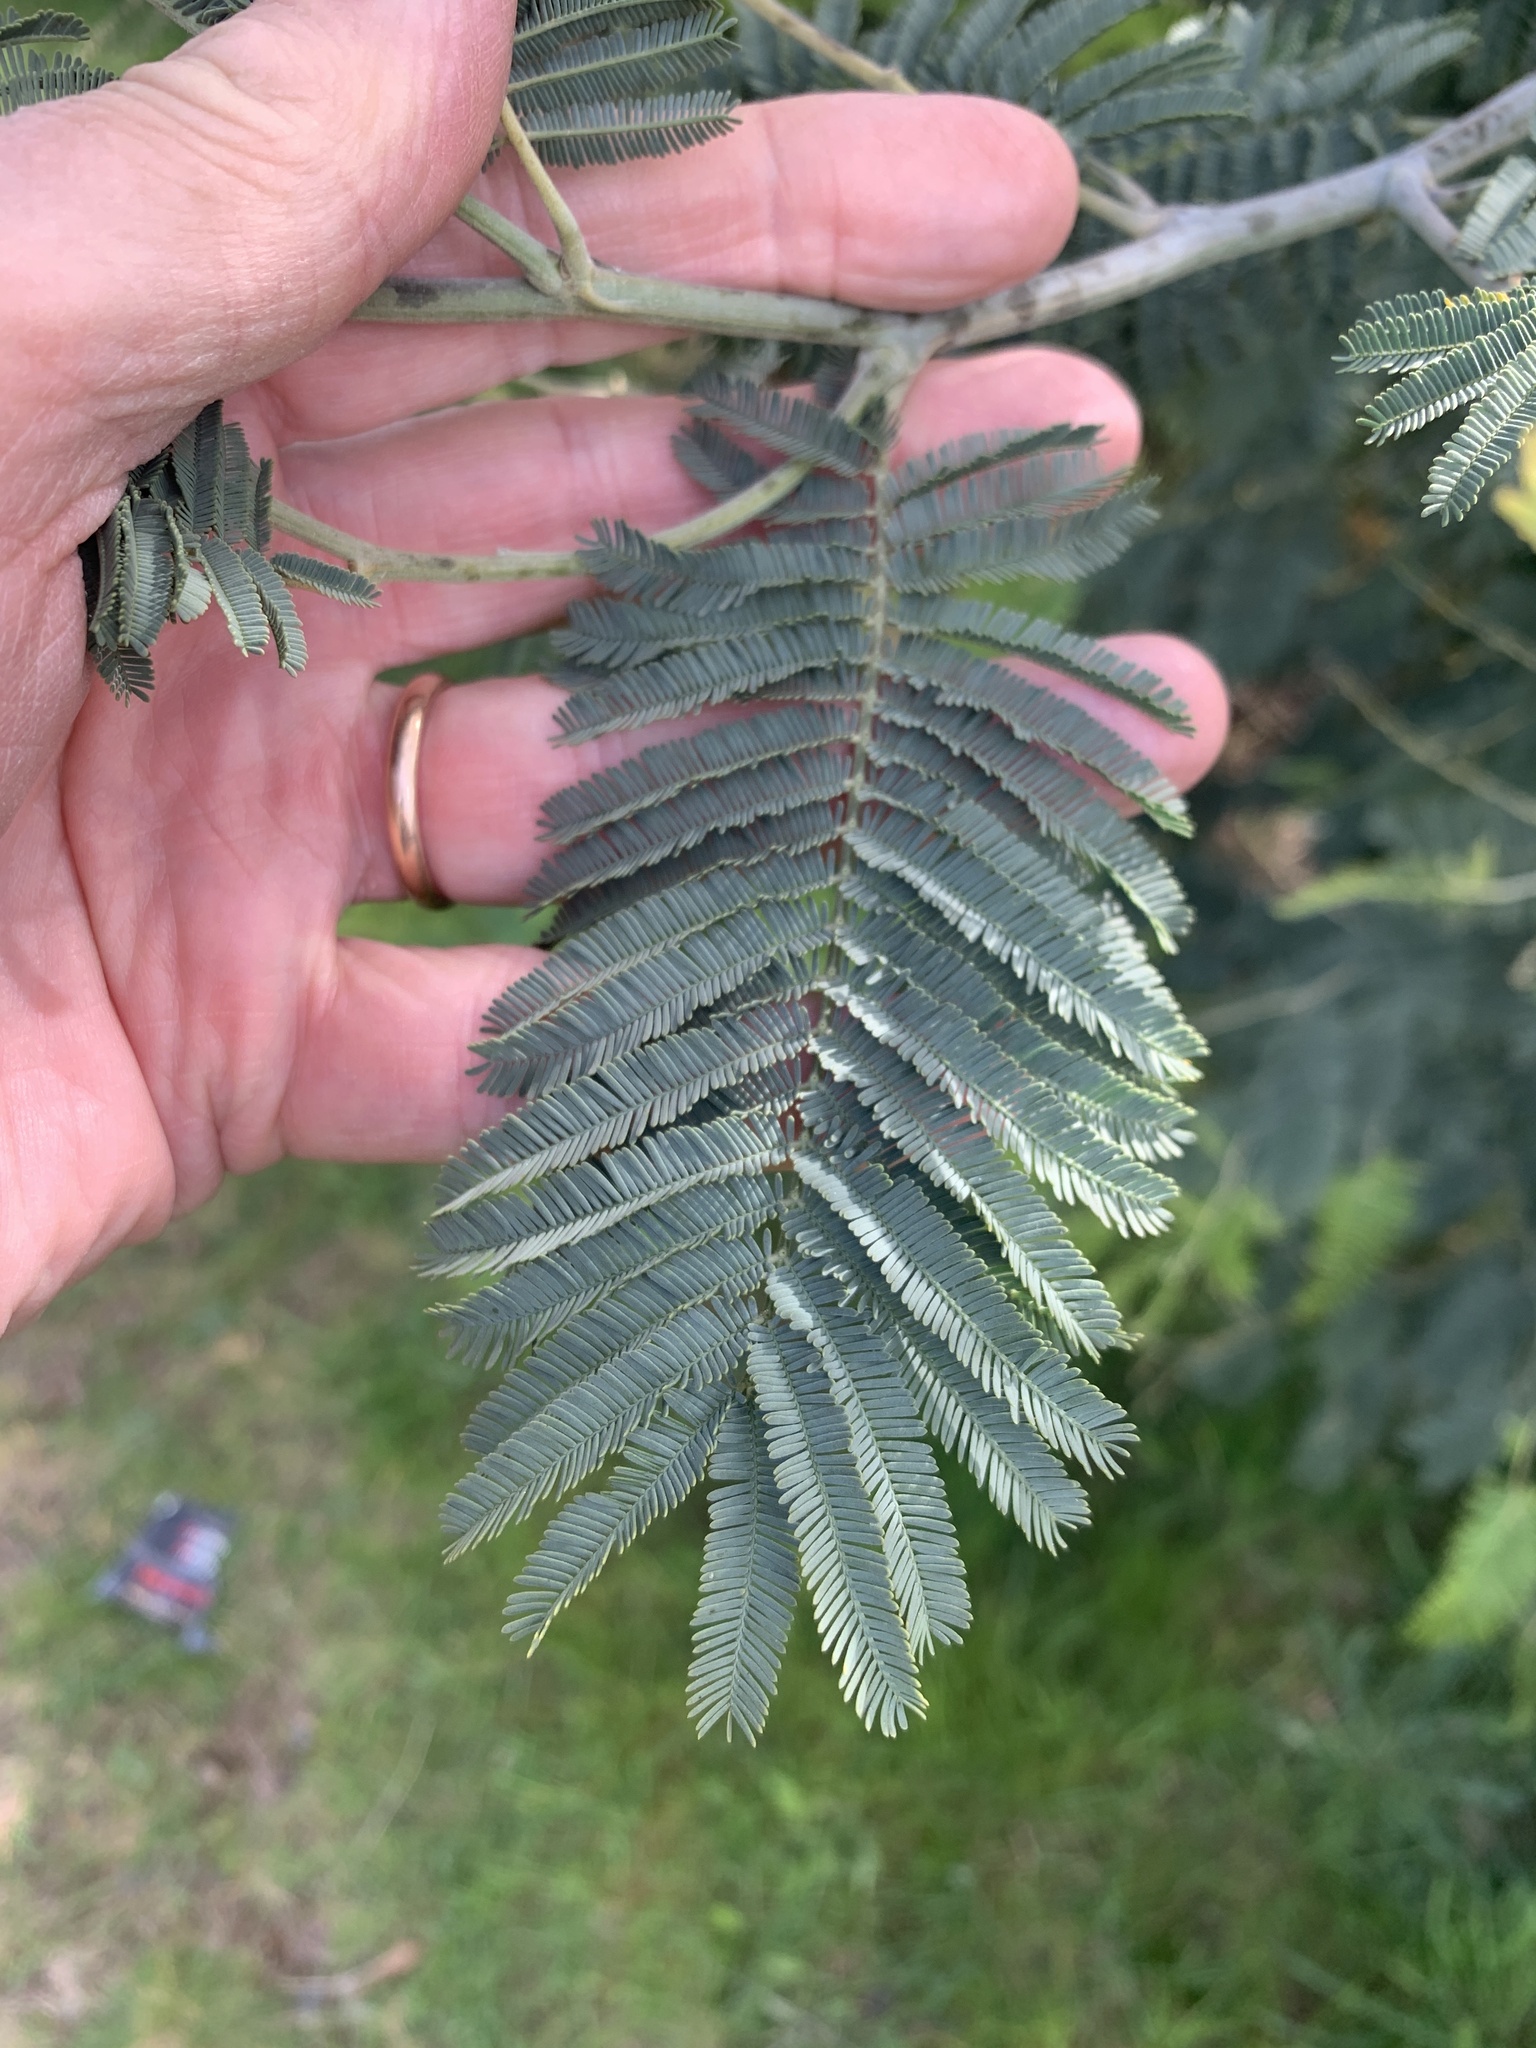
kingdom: Plantae
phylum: Tracheophyta
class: Magnoliopsida
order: Fabales
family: Fabaceae
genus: Acacia
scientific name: Acacia dealbata
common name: Silver wattle
